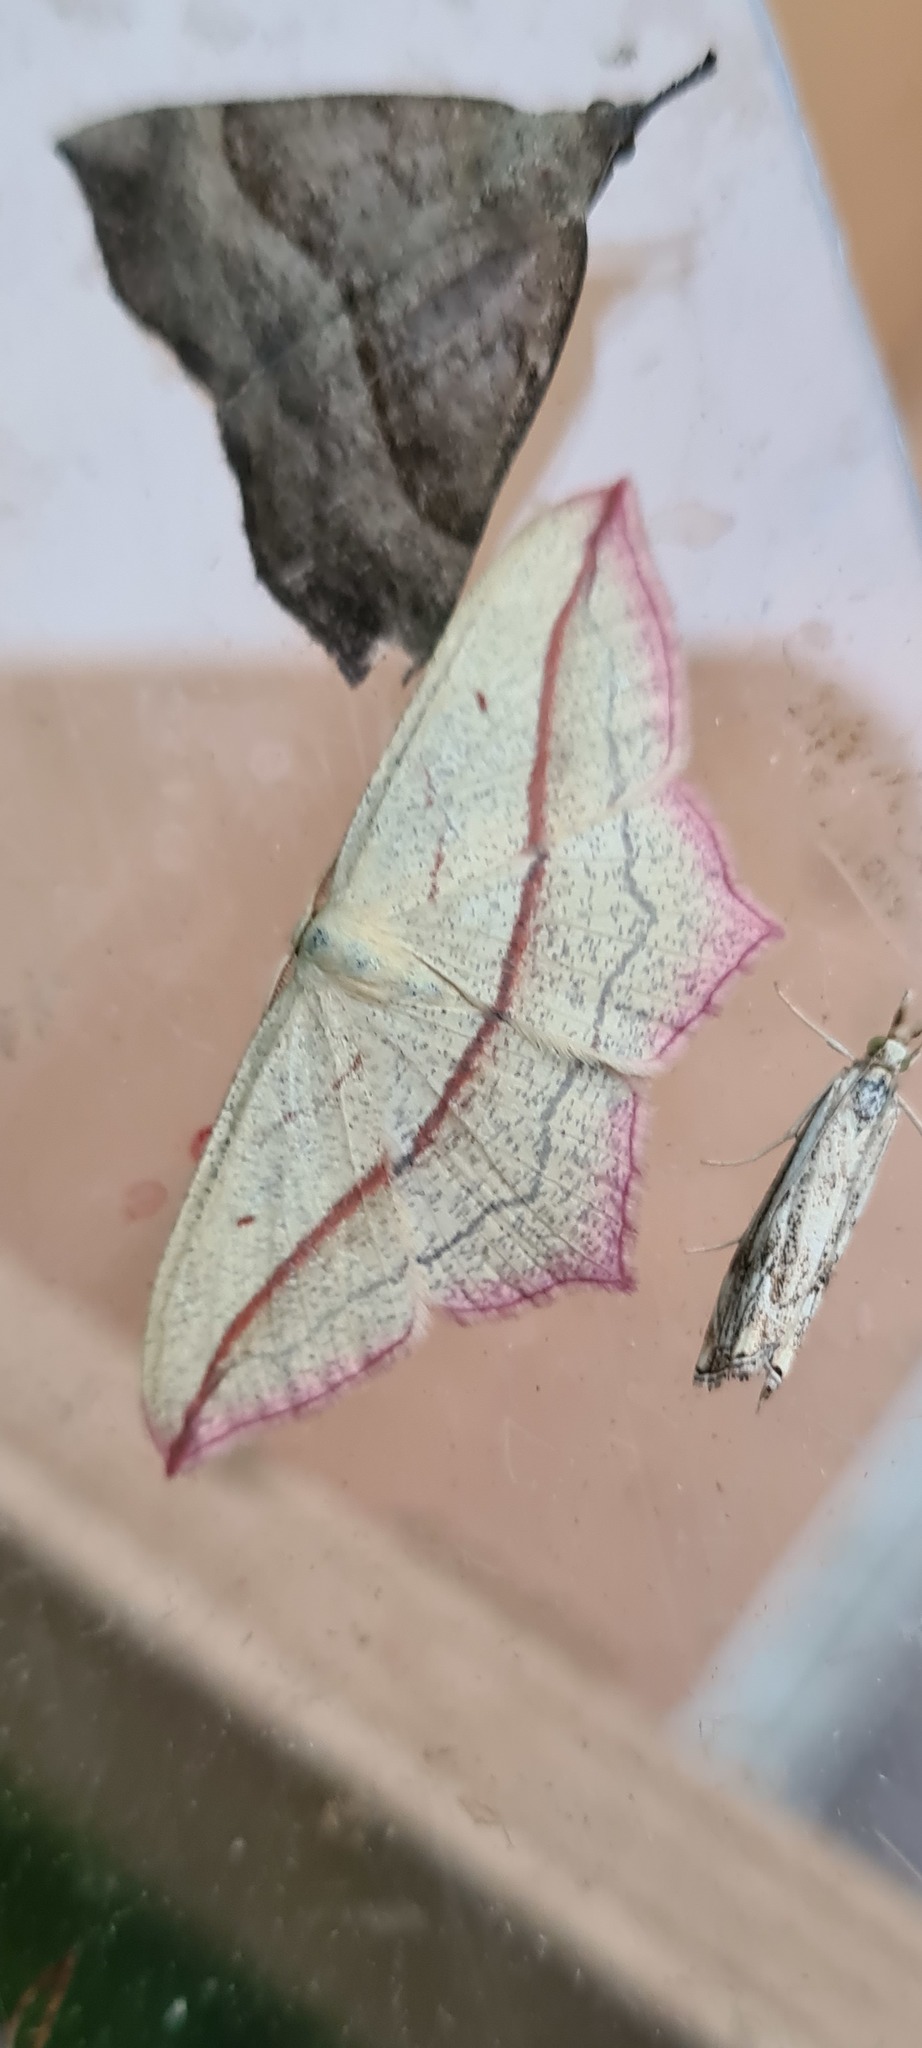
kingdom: Animalia
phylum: Arthropoda
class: Insecta
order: Lepidoptera
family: Geometridae
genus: Timandra
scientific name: Timandra comae
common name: Blood-vein
